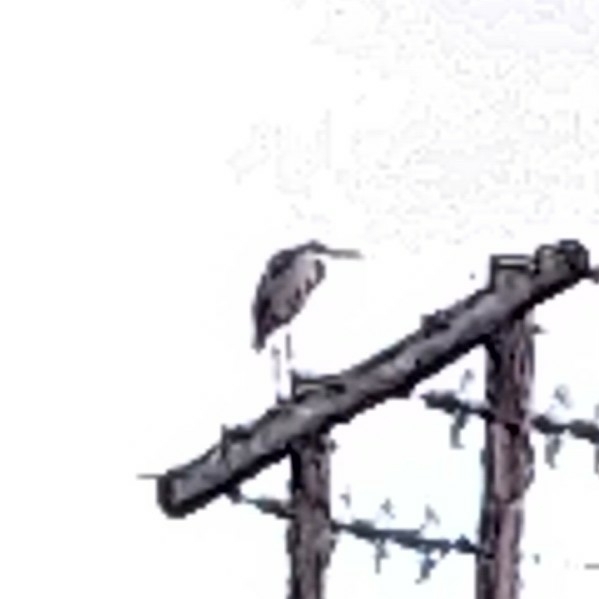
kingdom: Animalia
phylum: Chordata
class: Aves
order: Pelecaniformes
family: Ardeidae
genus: Ardea
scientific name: Ardea cinerea
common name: Grey heron
